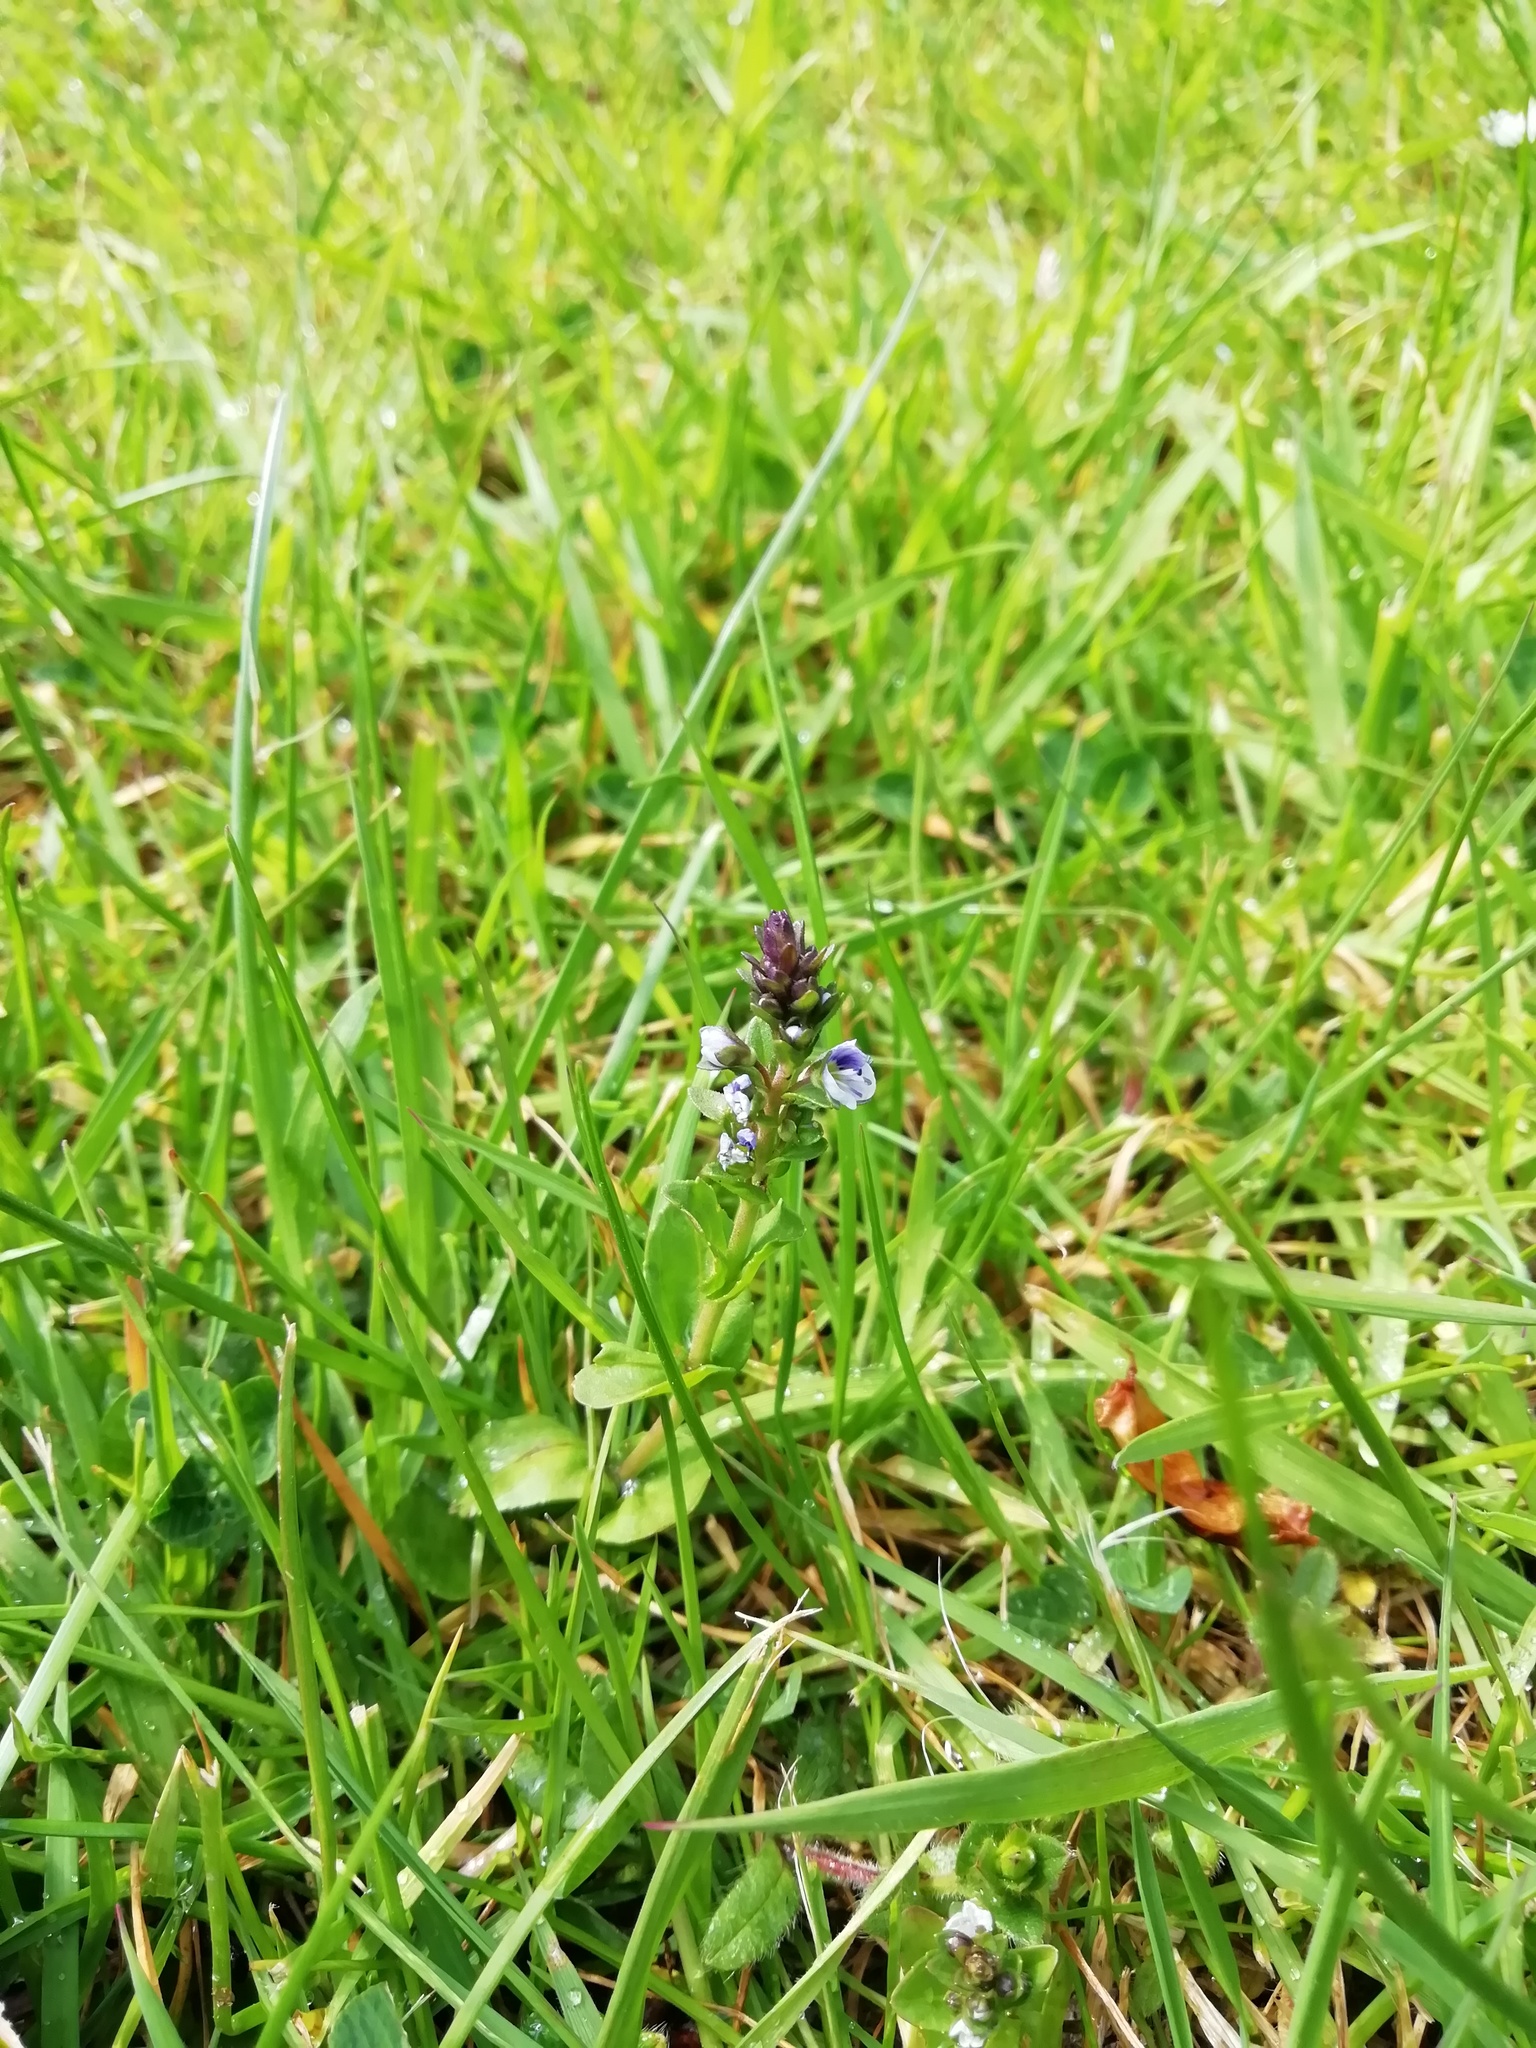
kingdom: Plantae
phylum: Tracheophyta
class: Magnoliopsida
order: Lamiales
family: Plantaginaceae
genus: Veronica
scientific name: Veronica serpyllifolia
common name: Thyme-leaved speedwell
